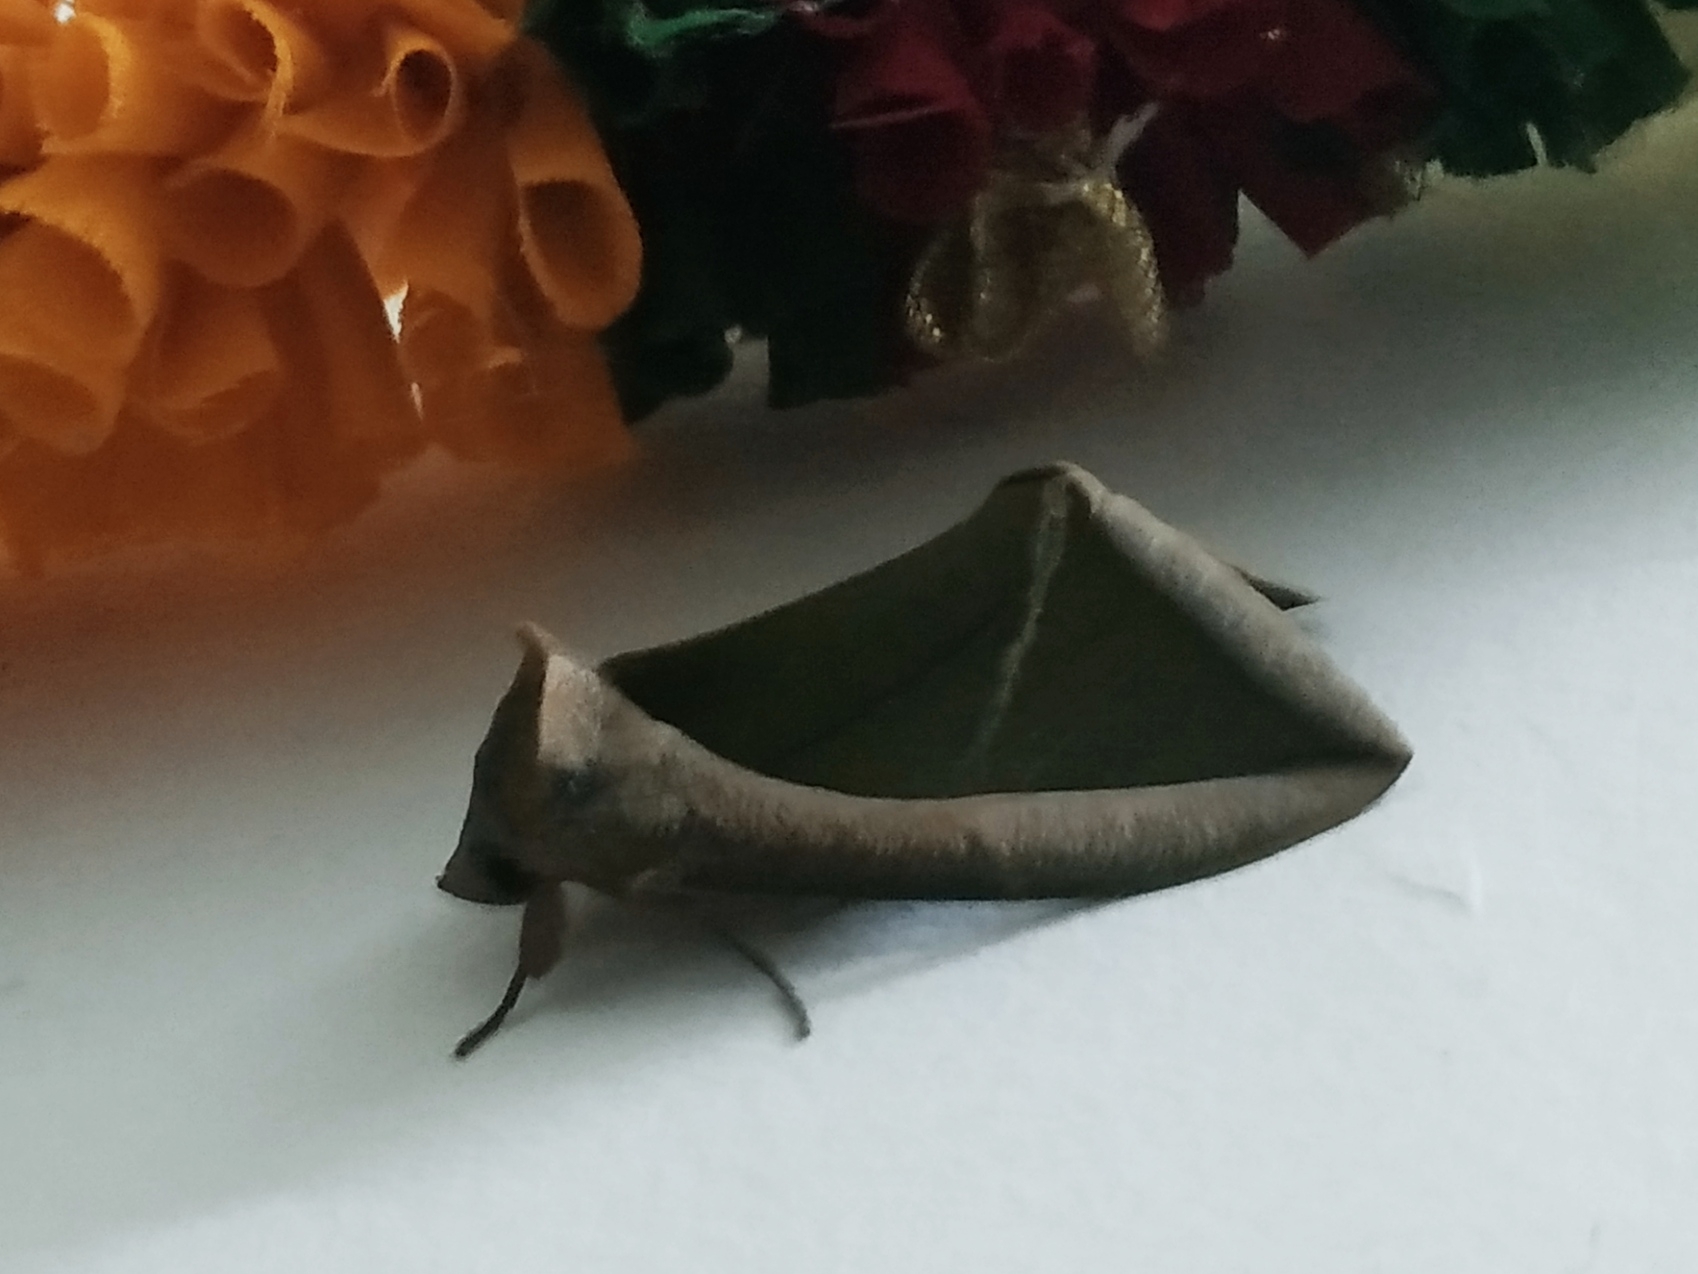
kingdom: Animalia
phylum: Arthropoda
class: Insecta
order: Lepidoptera
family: Erebidae
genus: Eudocima
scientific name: Eudocima salaminia
